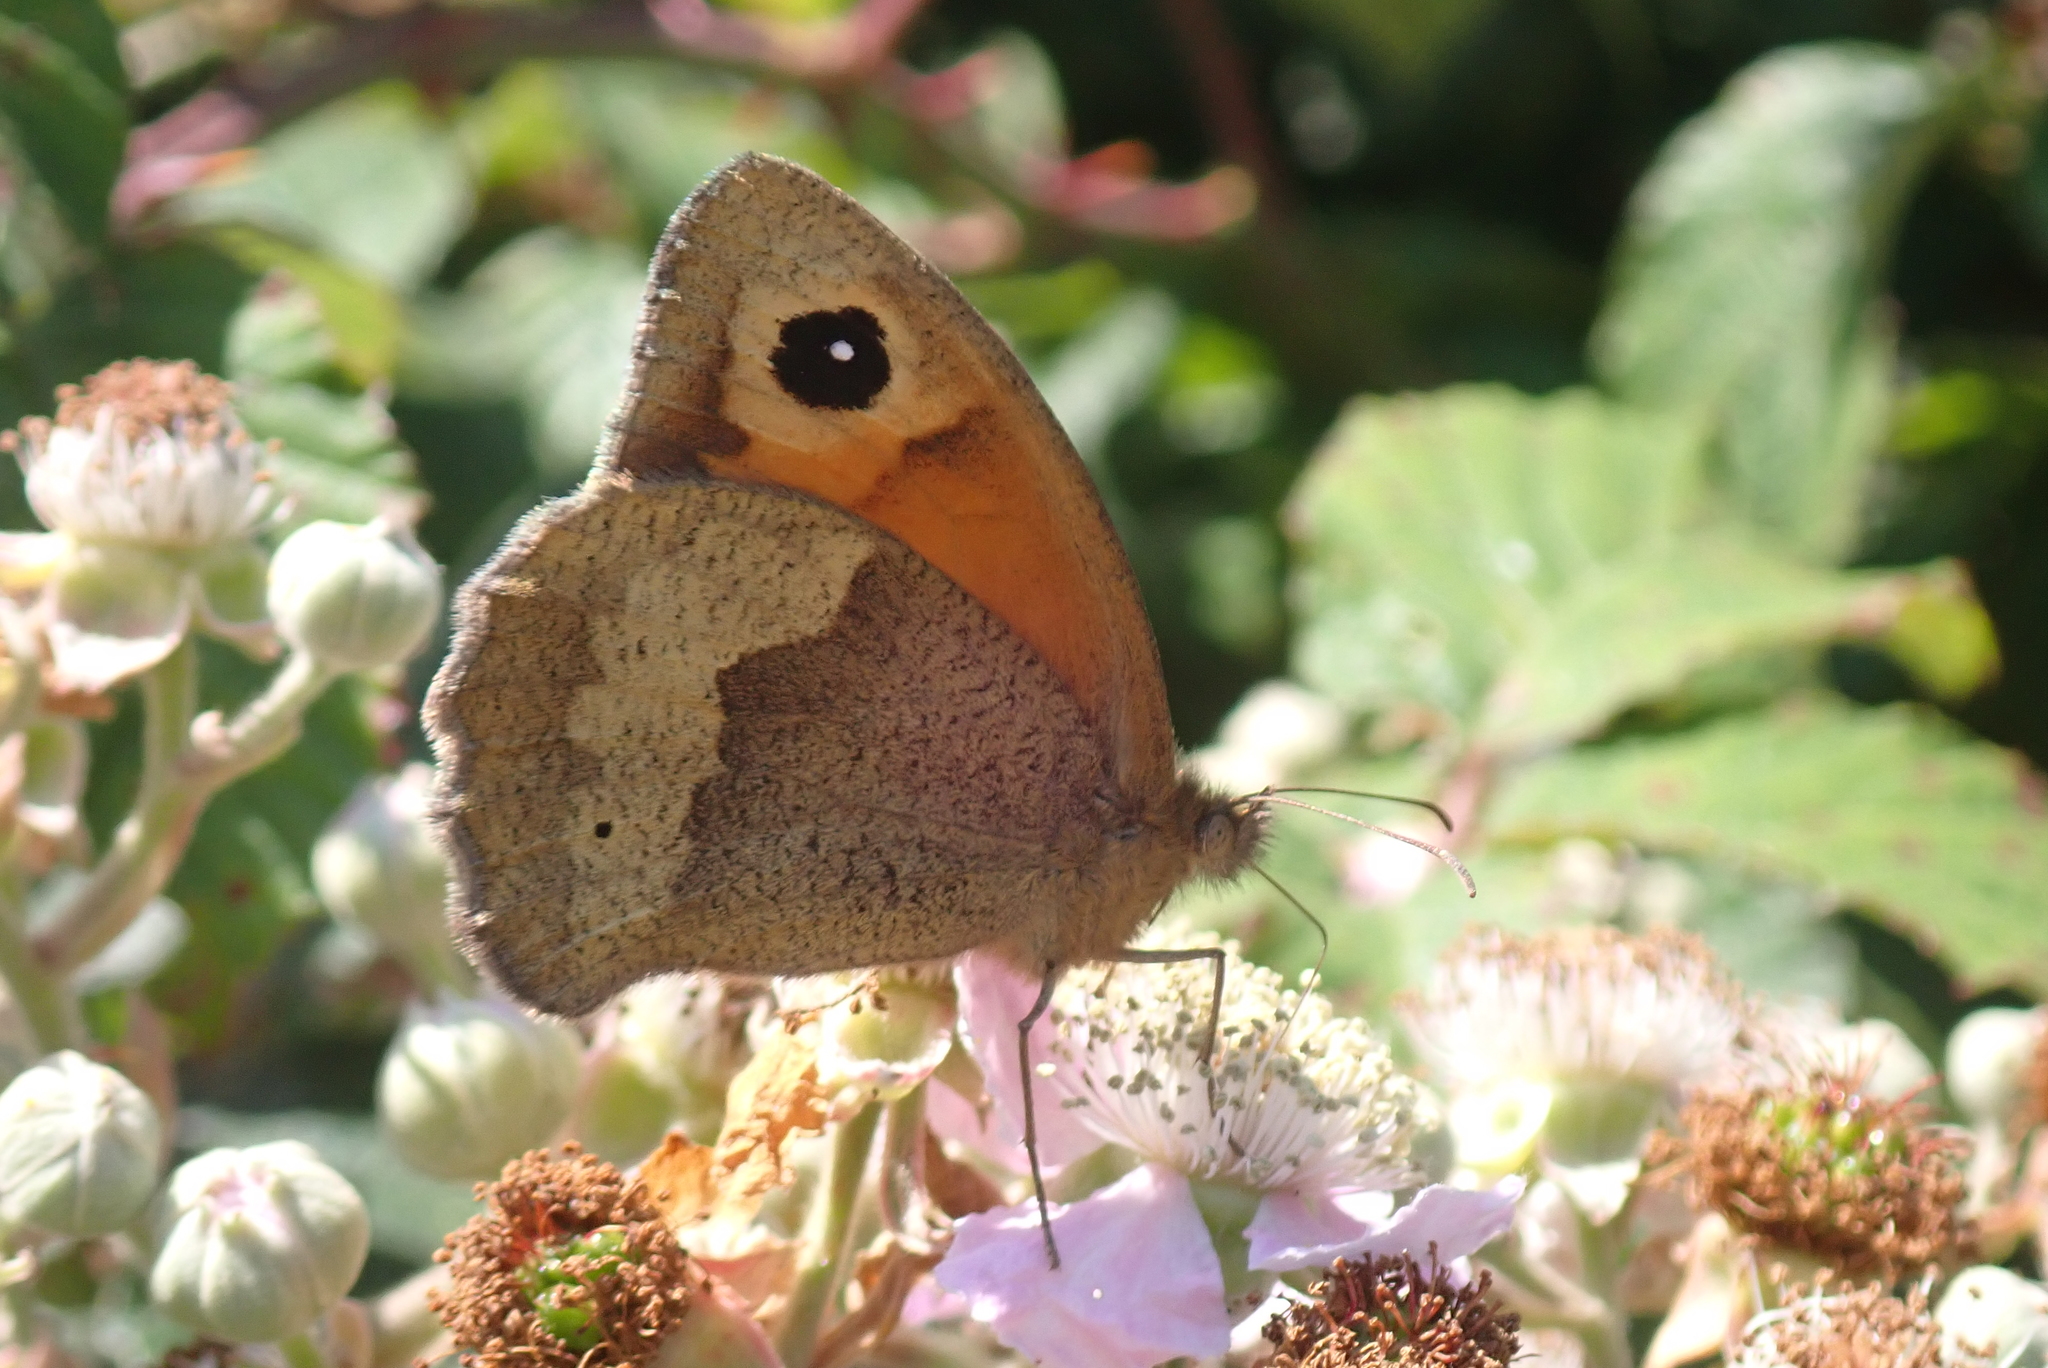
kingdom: Animalia
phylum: Arthropoda
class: Insecta
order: Lepidoptera
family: Nymphalidae
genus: Maniola
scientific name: Maniola jurtina
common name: Meadow brown
